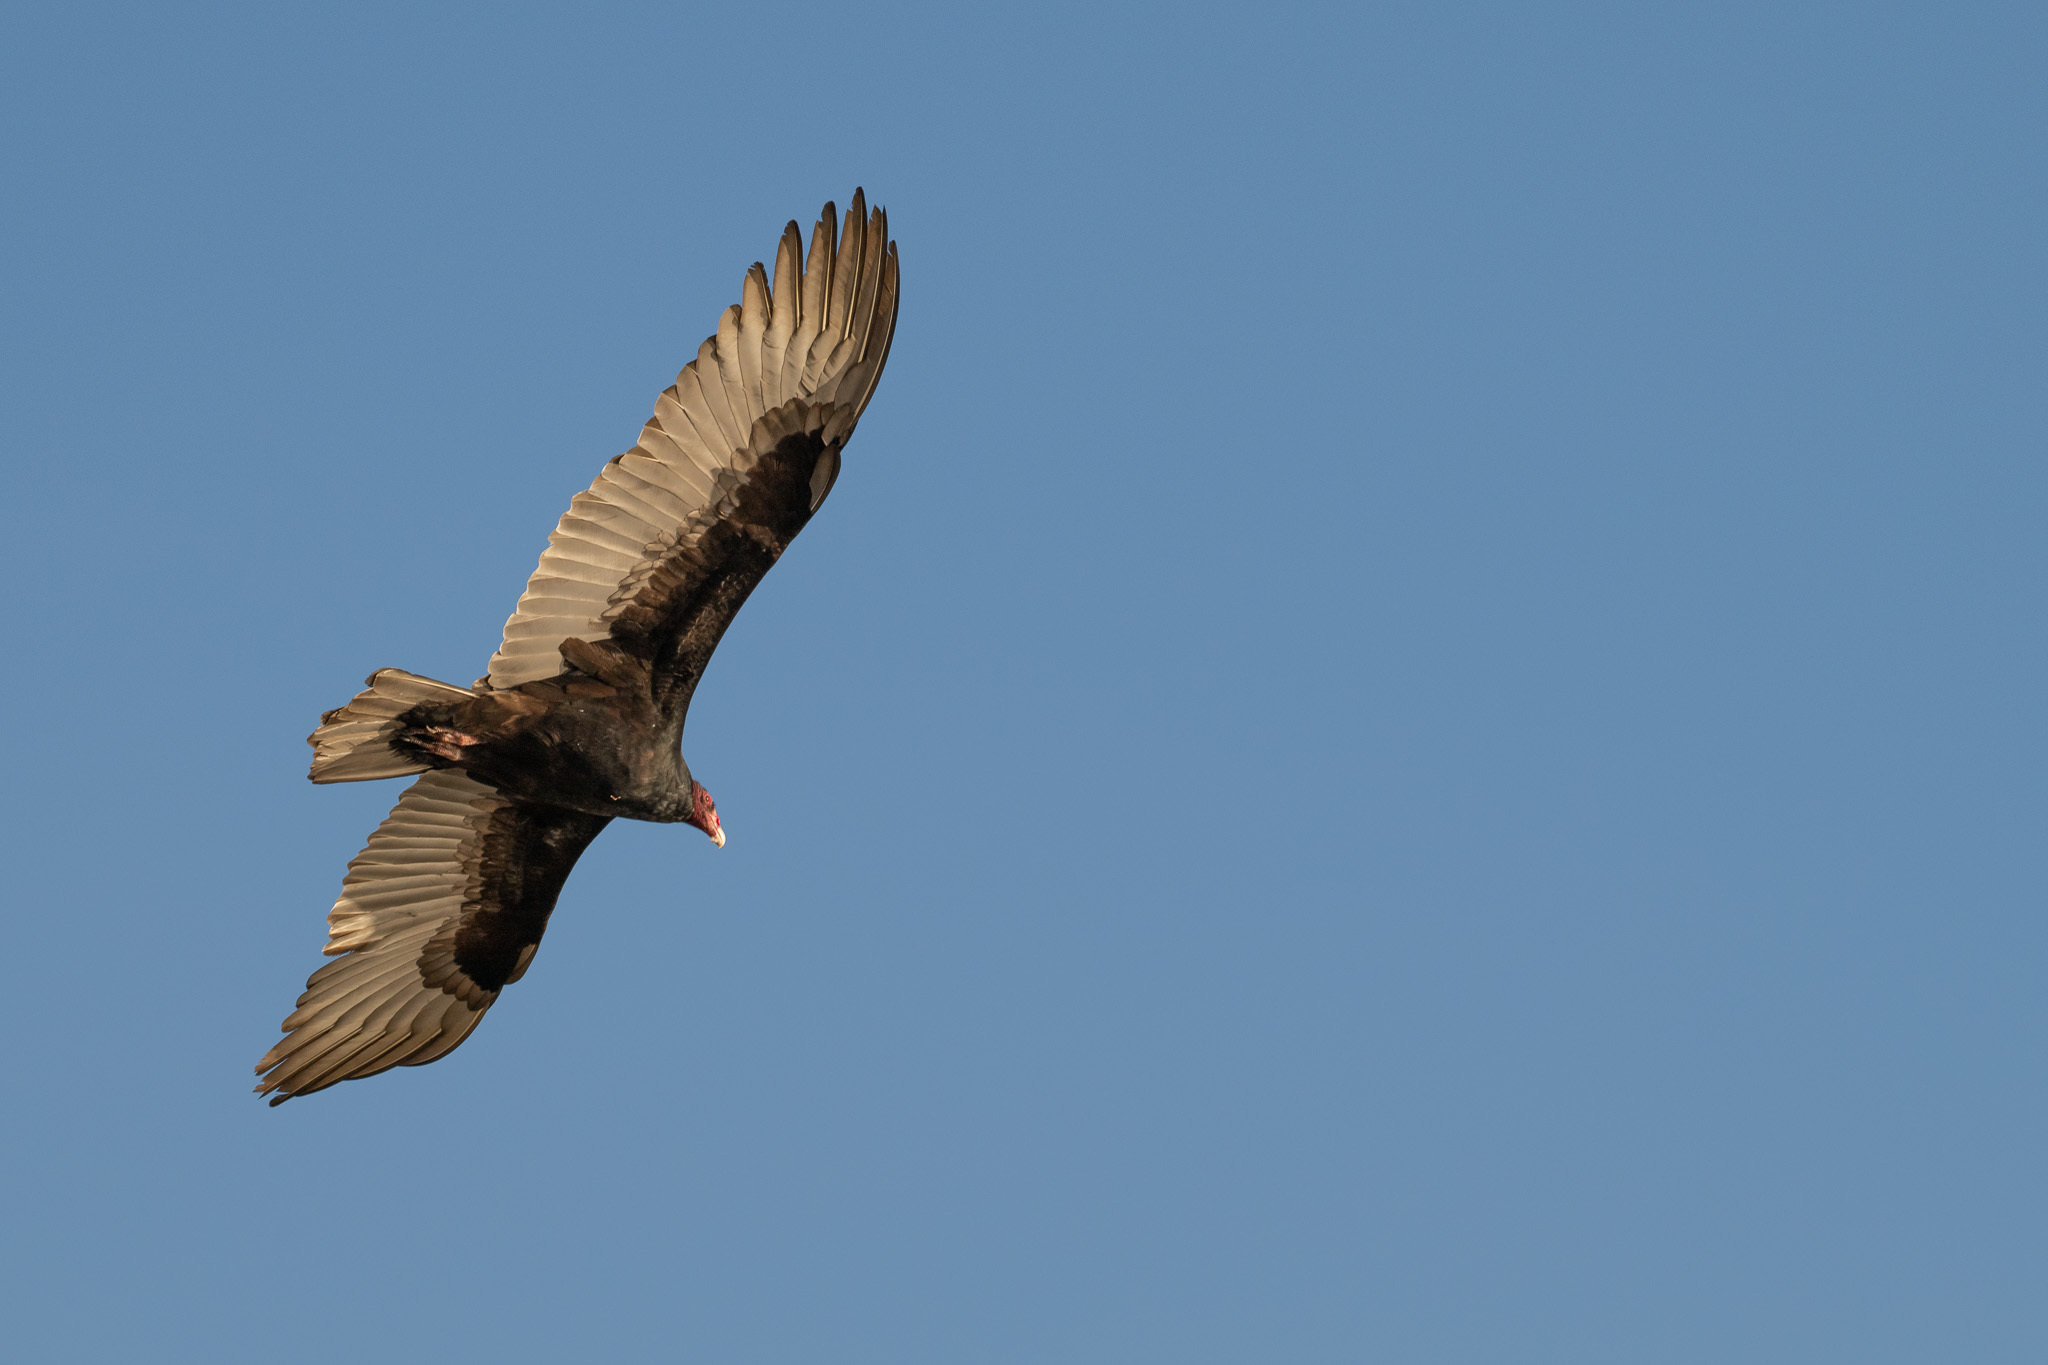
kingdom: Animalia
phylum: Chordata
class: Aves
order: Accipitriformes
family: Cathartidae
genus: Cathartes
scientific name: Cathartes aura
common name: Turkey vulture
